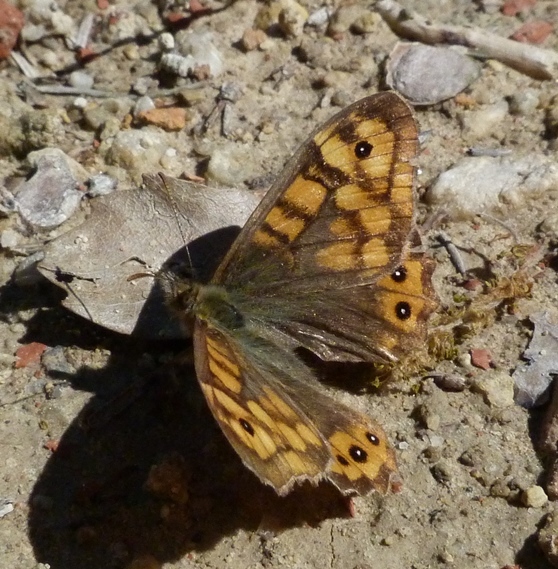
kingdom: Animalia
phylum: Arthropoda
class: Insecta
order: Lepidoptera
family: Nymphalidae
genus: Pararge
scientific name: Pararge aegeria
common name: Speckled wood
